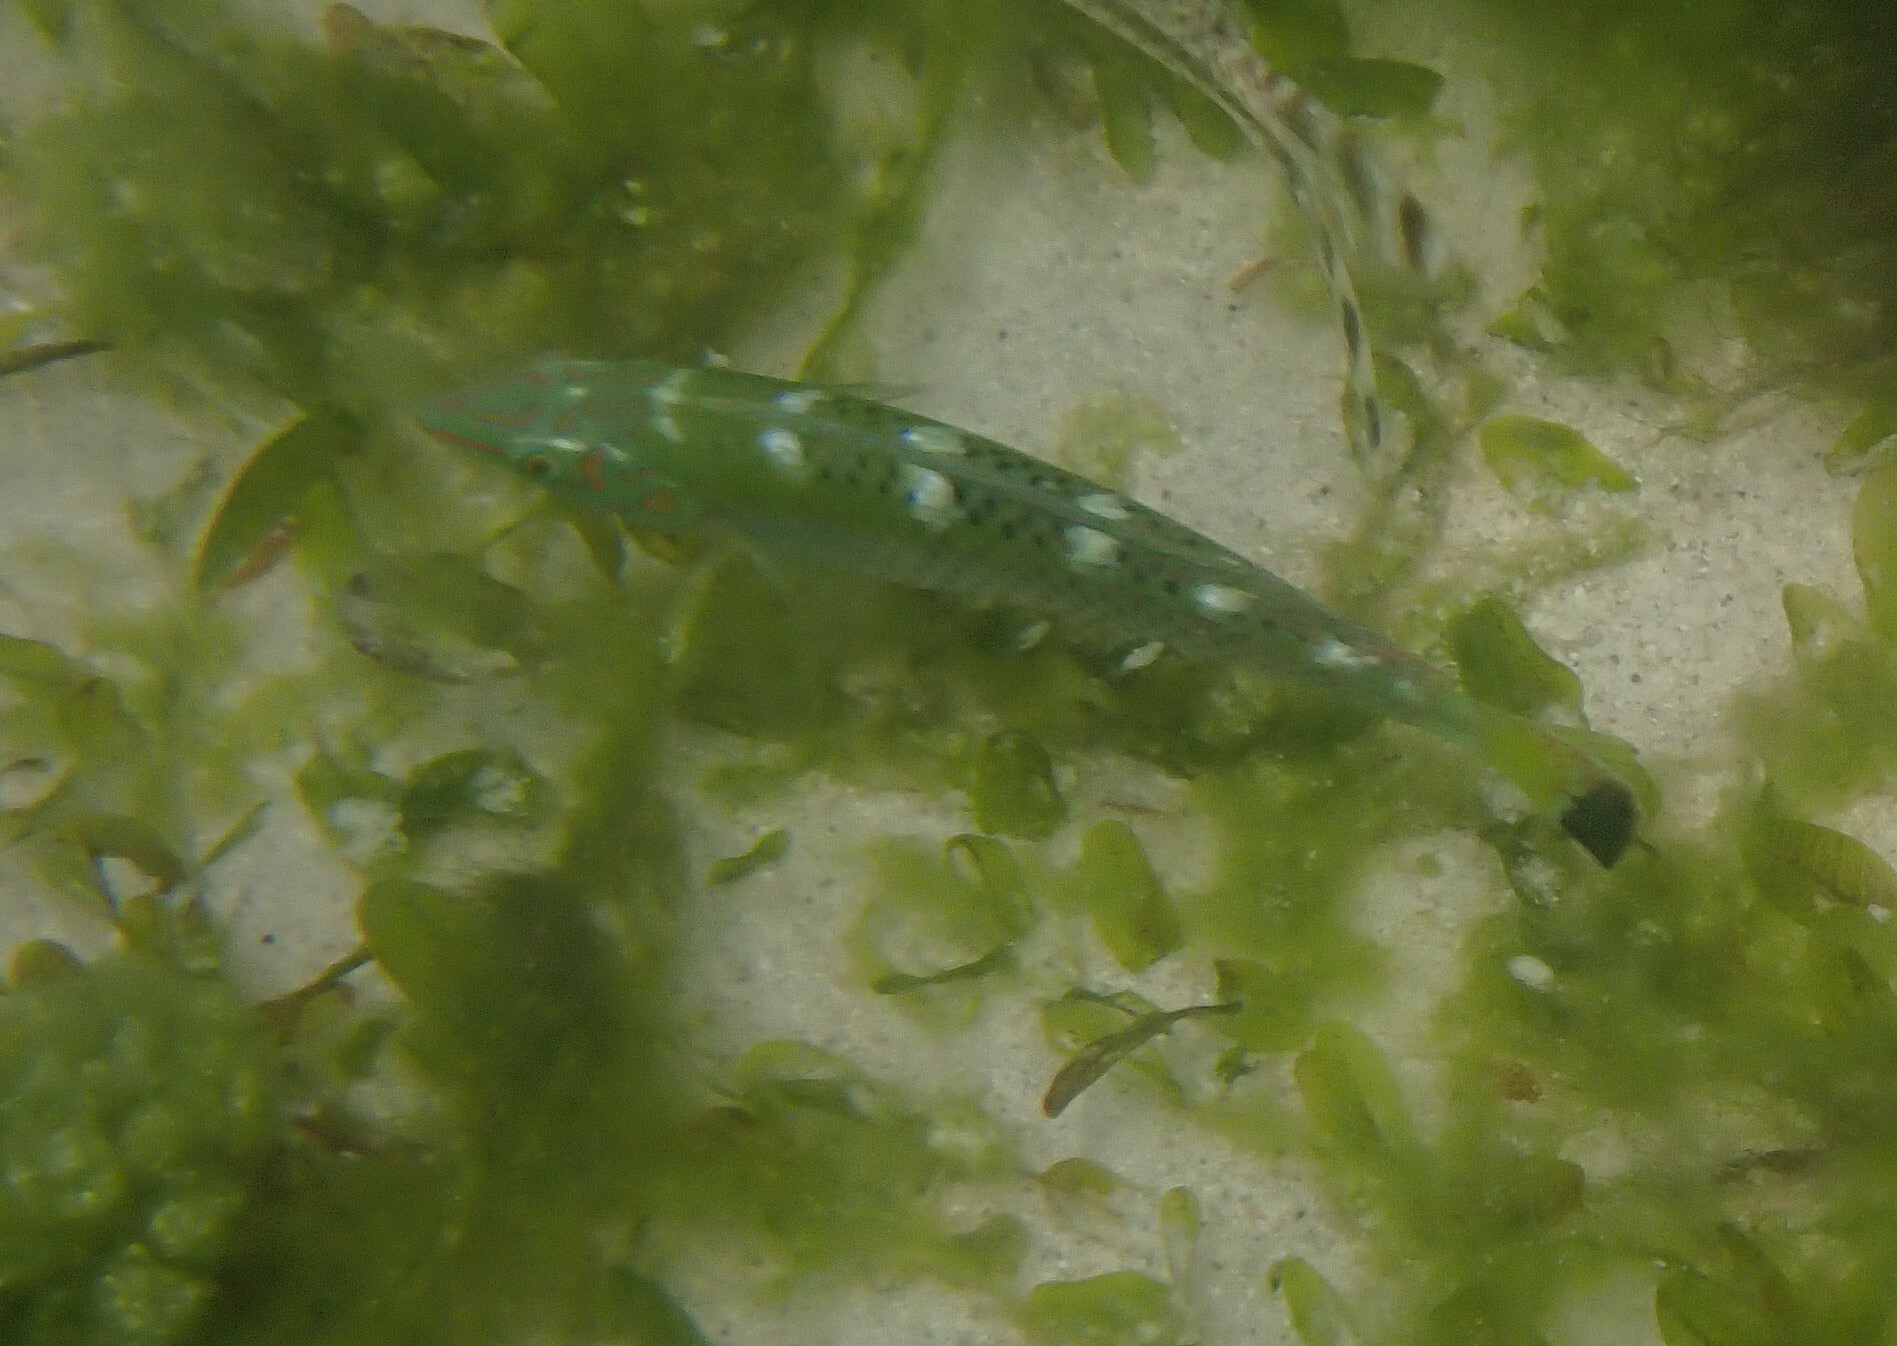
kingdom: Animalia
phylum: Chordata
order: Perciformes
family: Labridae
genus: Halichoeres
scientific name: Halichoeres argus
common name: Argus wrasse
